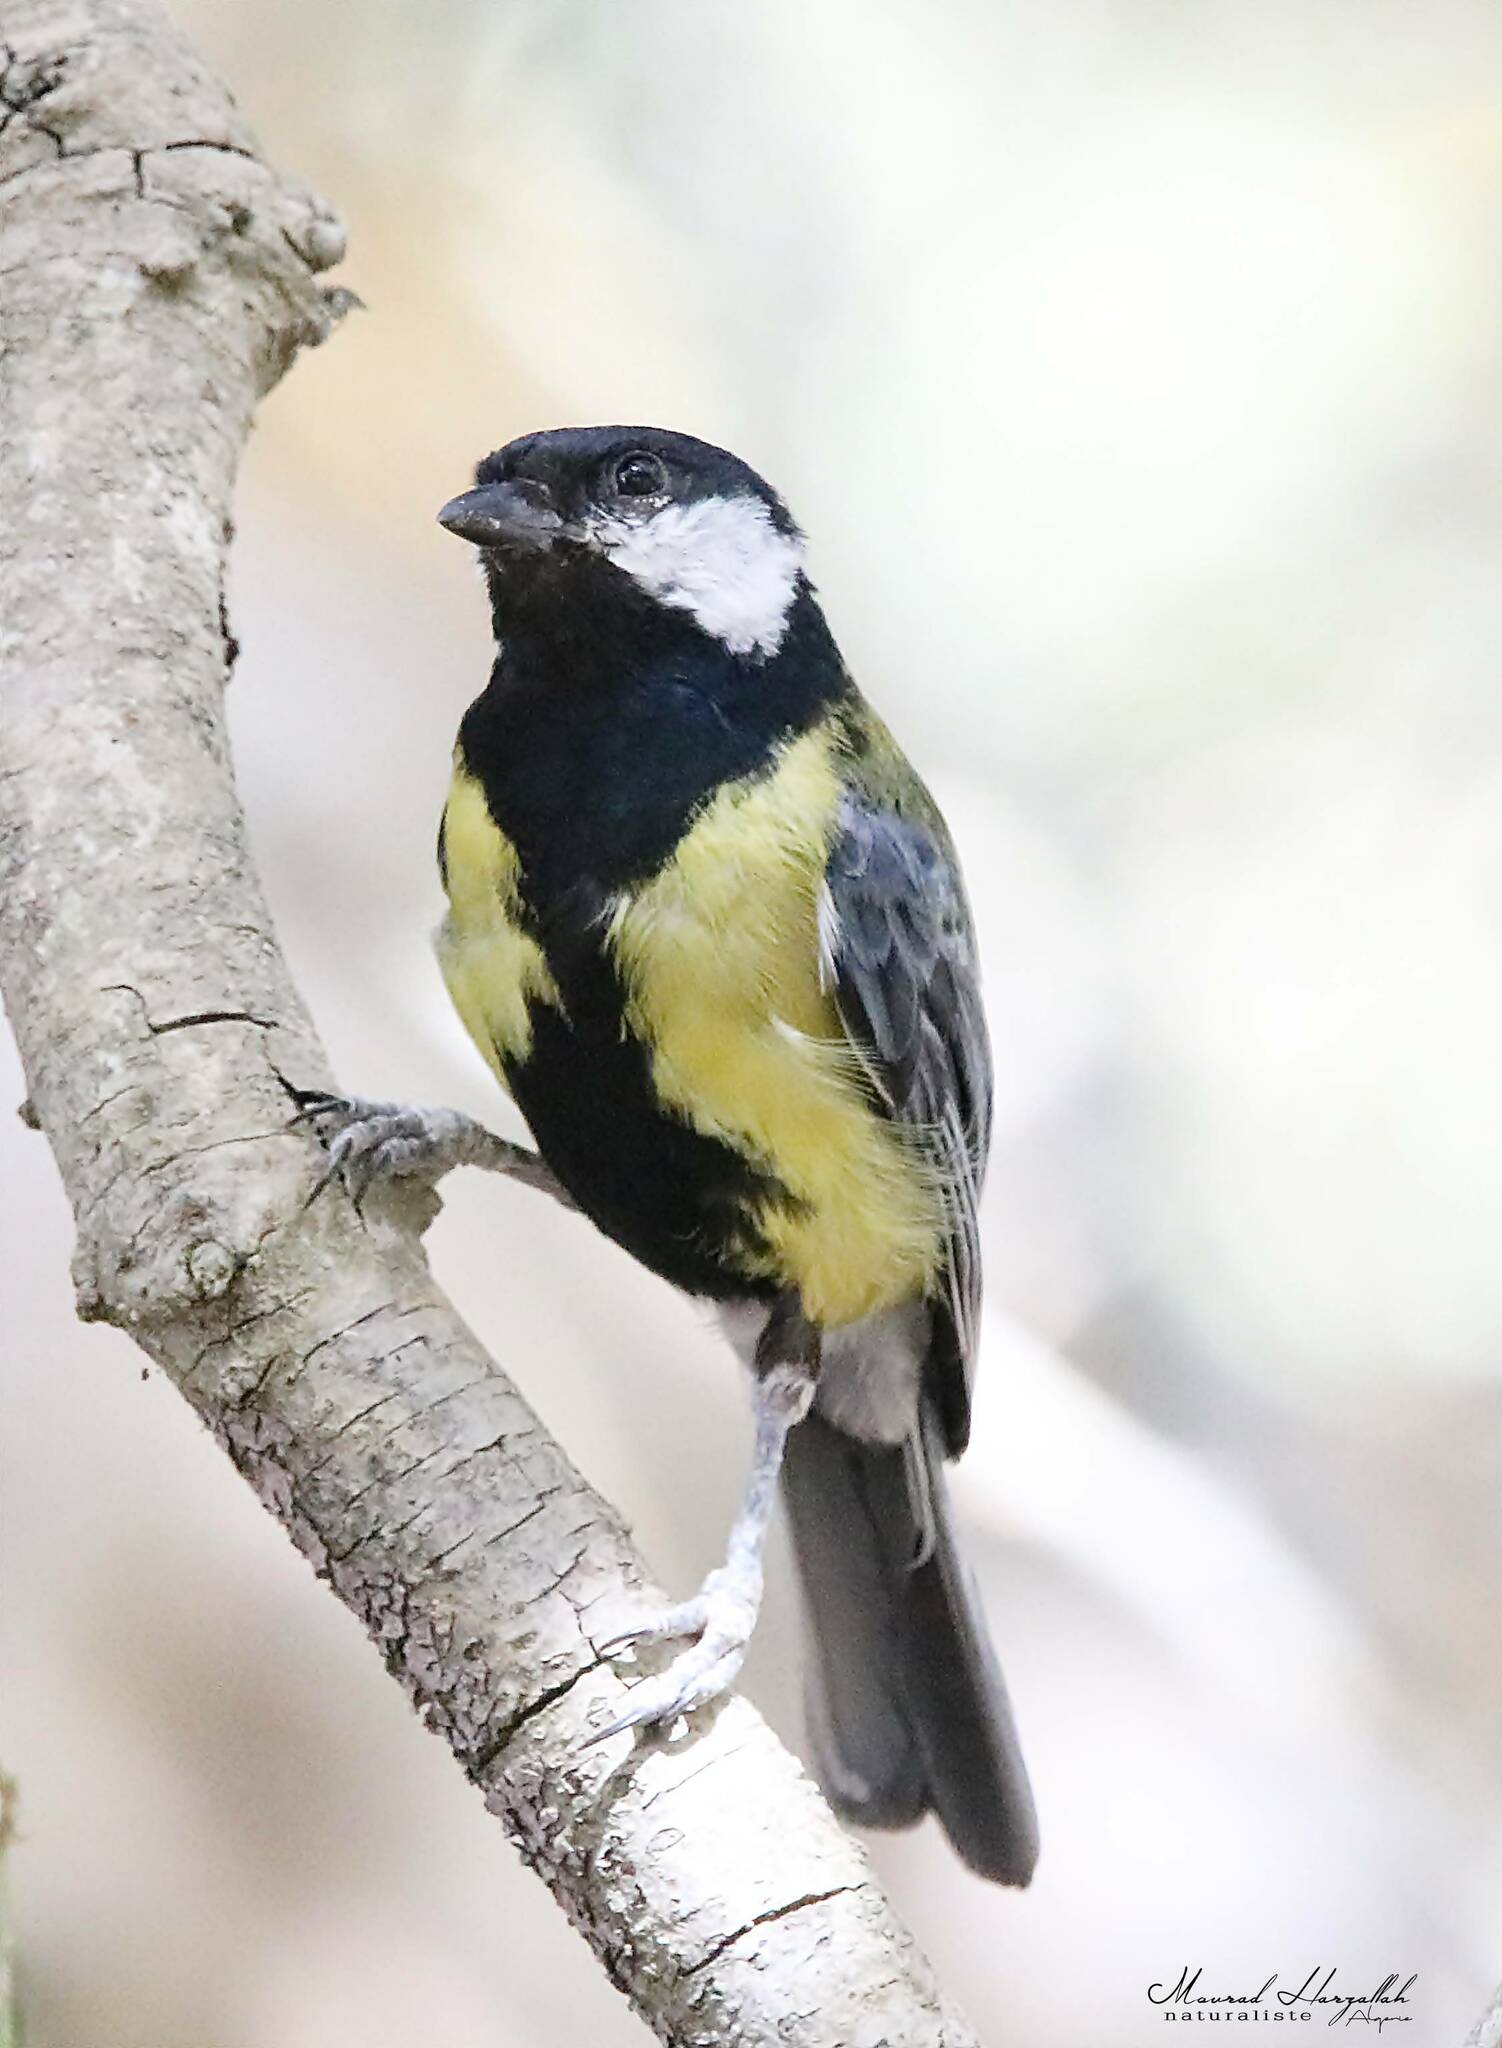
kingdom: Animalia
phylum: Chordata
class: Aves
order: Passeriformes
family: Paridae
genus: Parus
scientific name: Parus major
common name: Great tit
